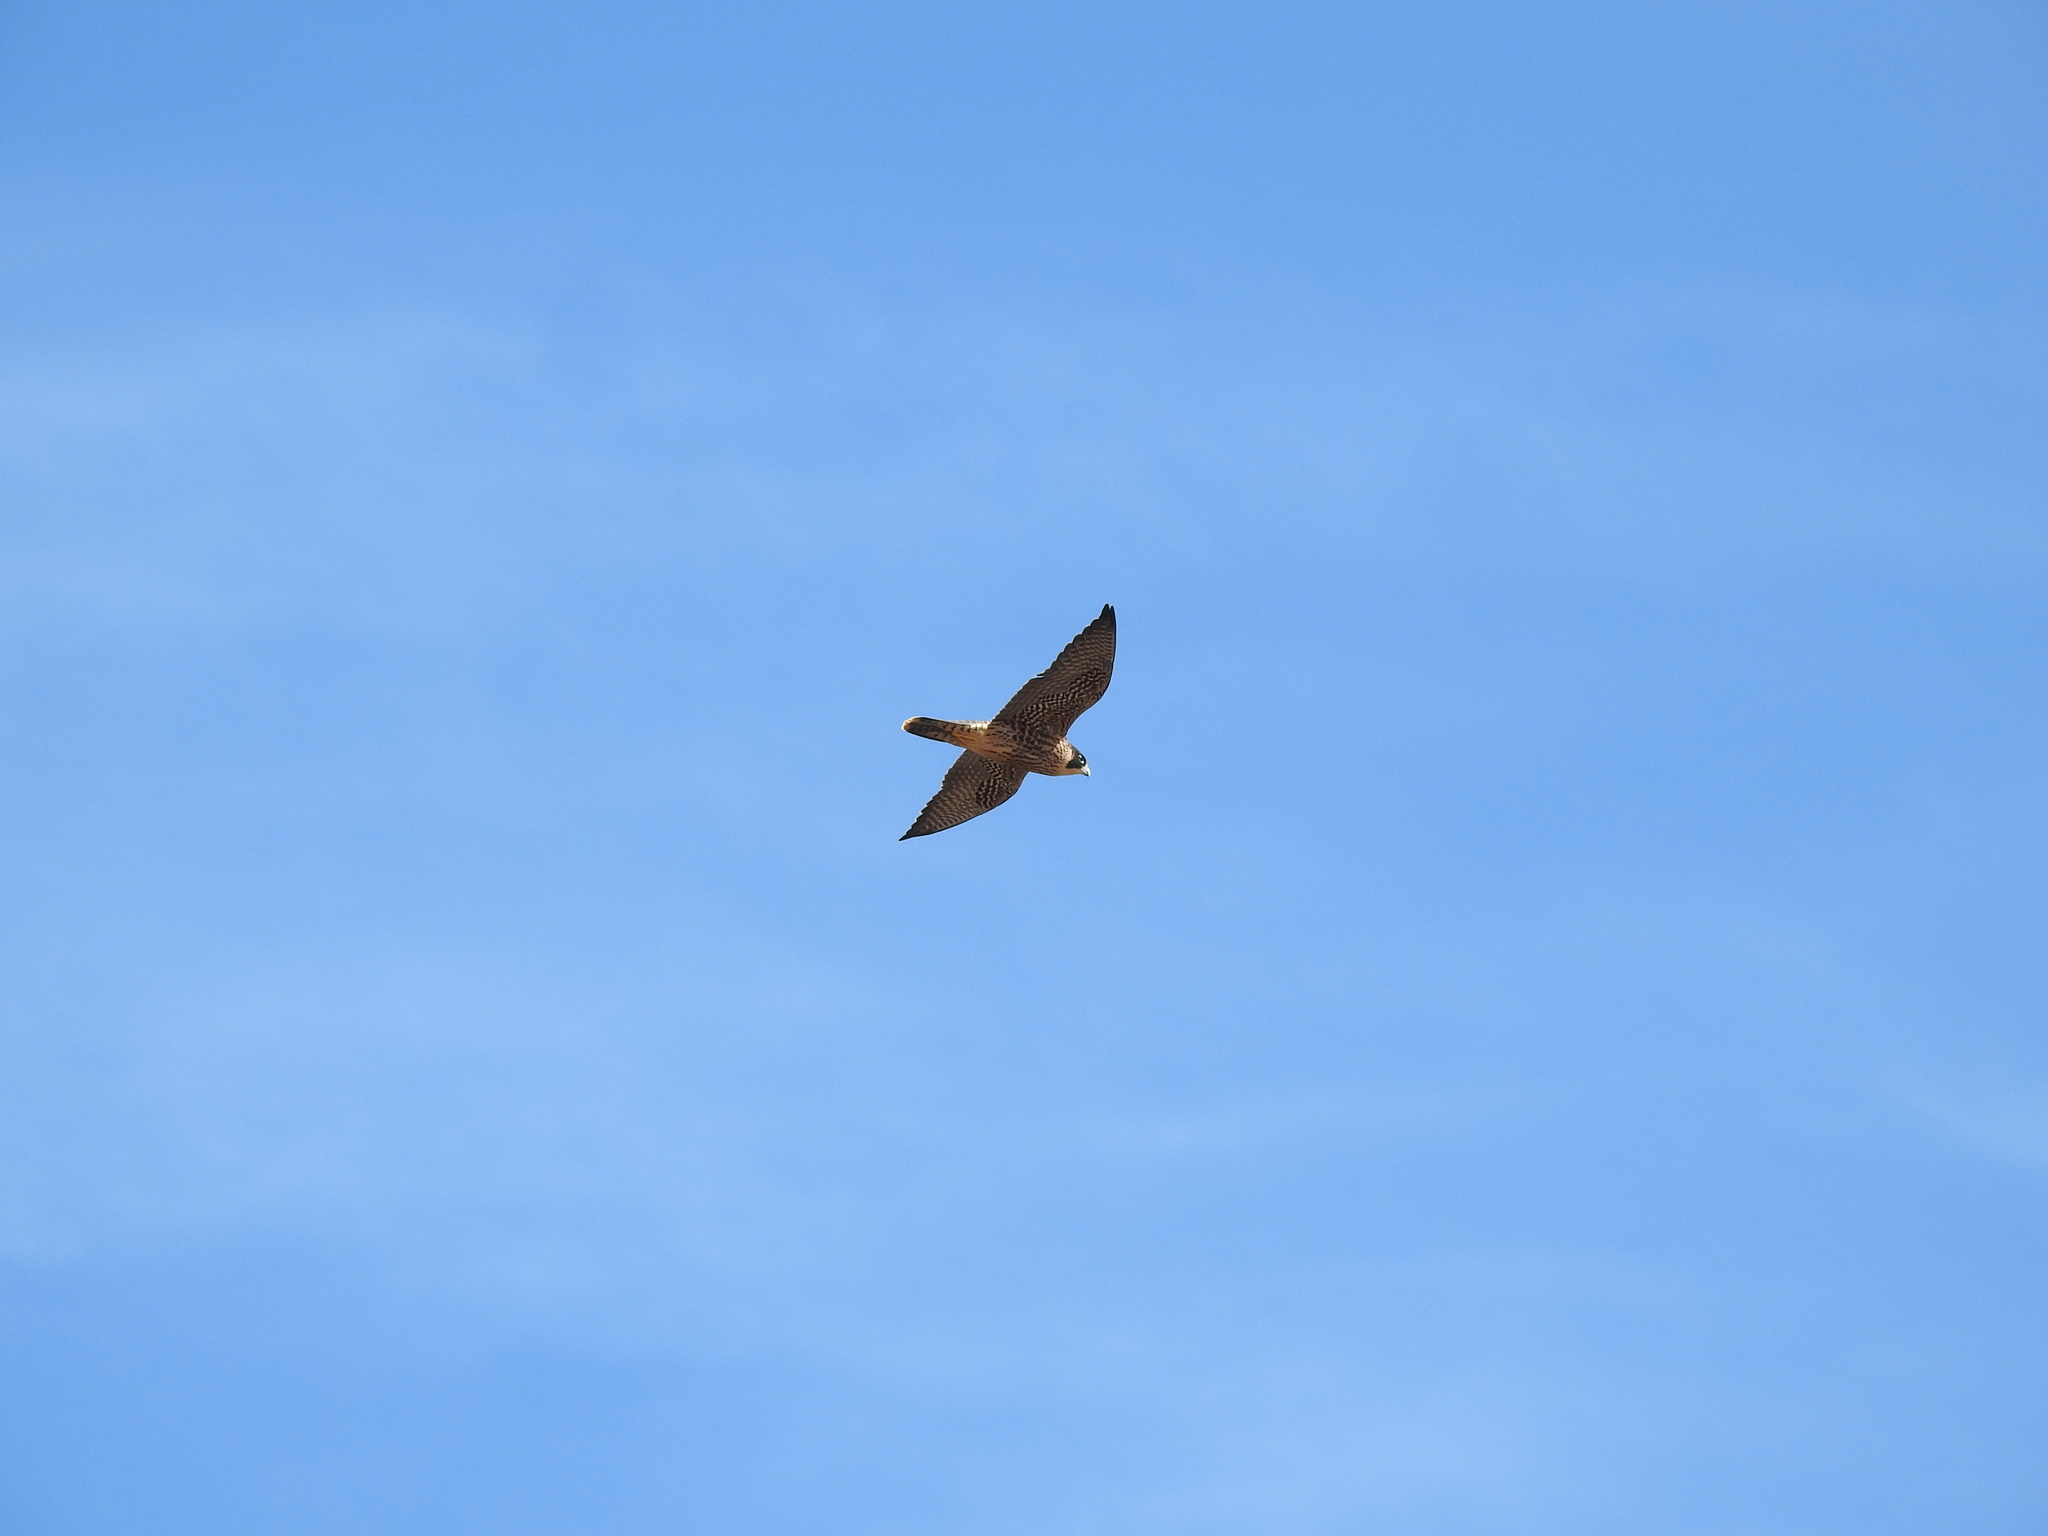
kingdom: Animalia
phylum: Chordata
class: Aves
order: Falconiformes
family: Falconidae
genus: Falco
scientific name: Falco peregrinus
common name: Peregrine falcon
